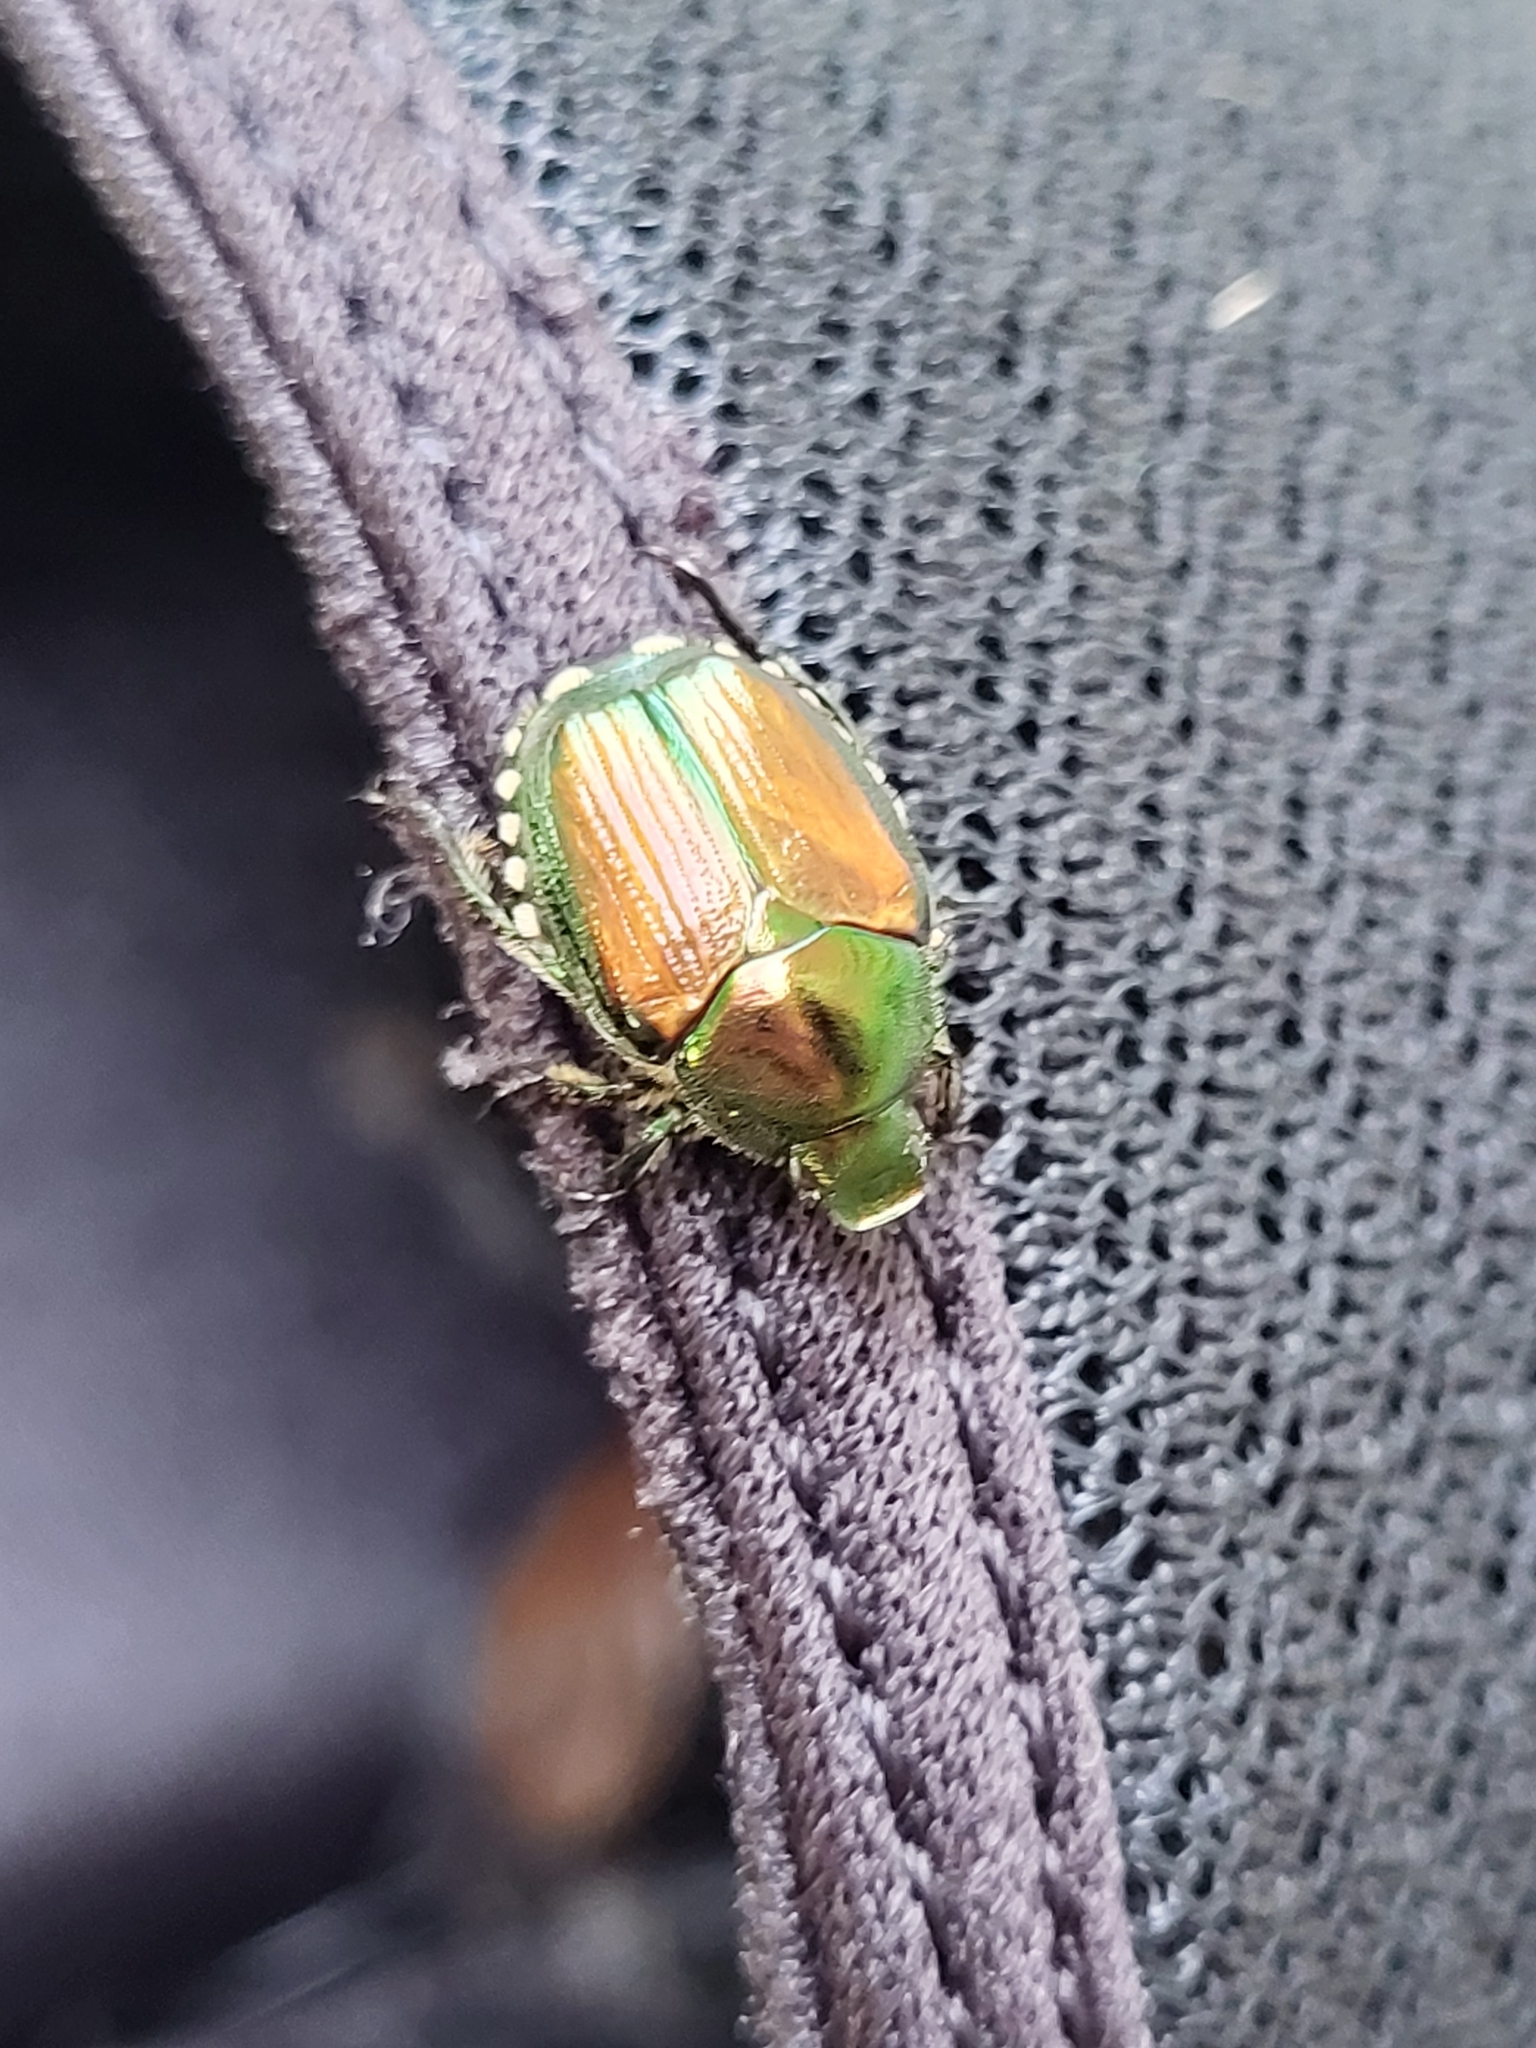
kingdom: Animalia
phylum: Arthropoda
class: Insecta
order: Coleoptera
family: Scarabaeidae
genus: Popillia
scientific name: Popillia japonica
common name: Japanese beetle
